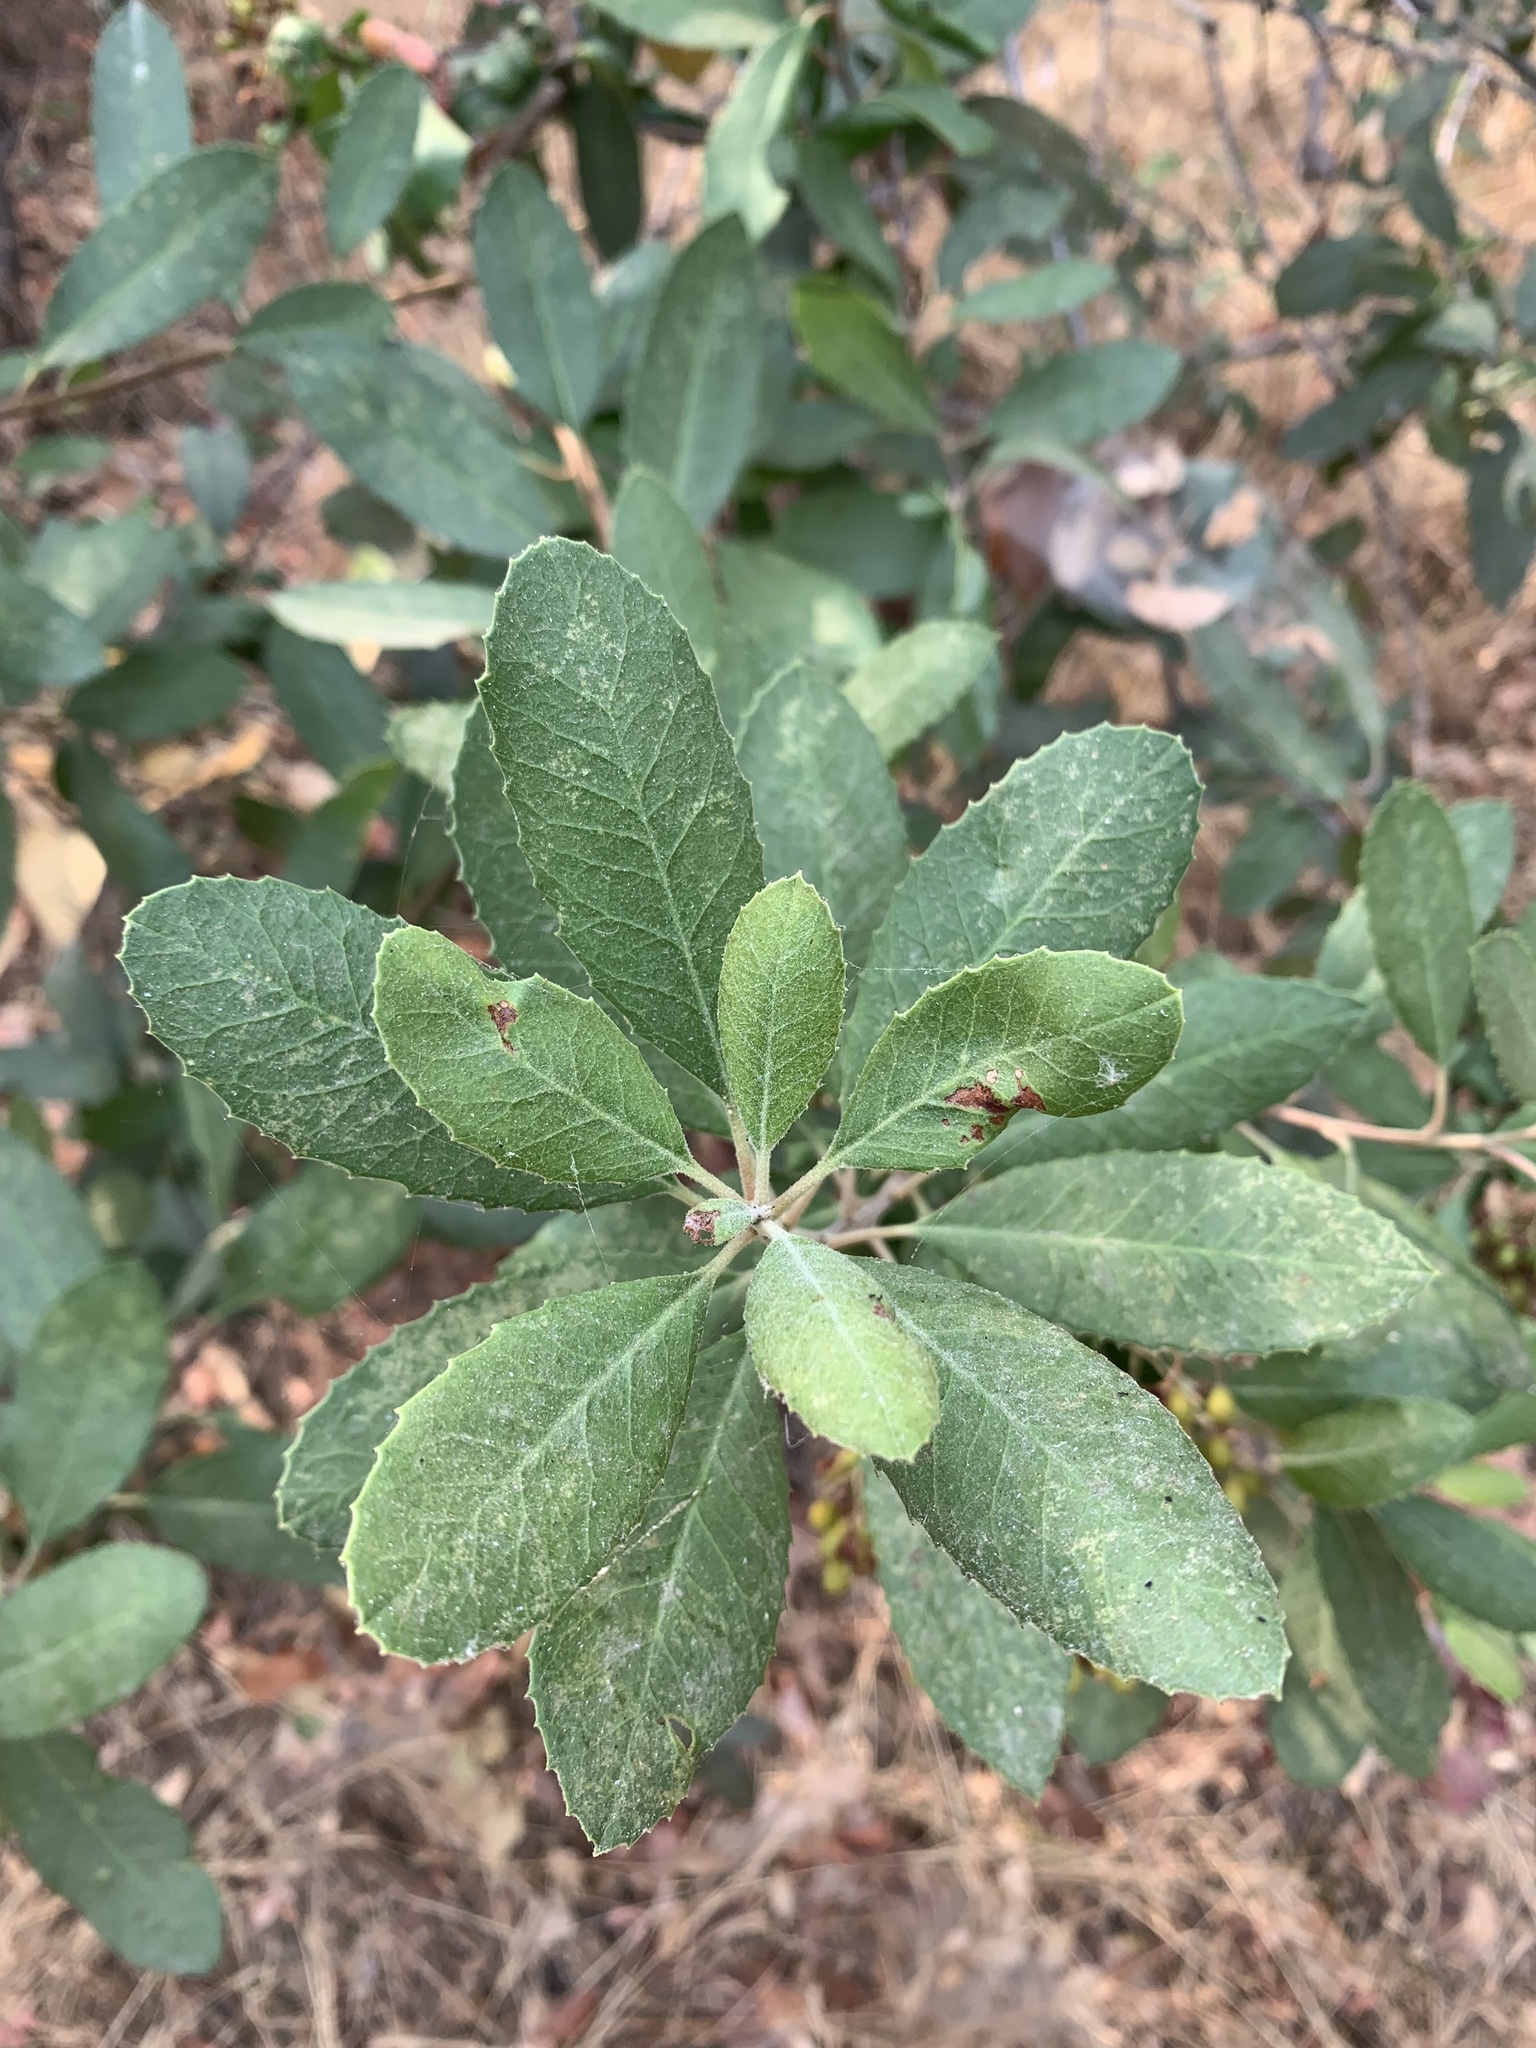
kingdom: Plantae
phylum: Tracheophyta
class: Magnoliopsida
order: Rosales
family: Rosaceae
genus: Heteromeles
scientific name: Heteromeles arbutifolia
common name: California-holly
